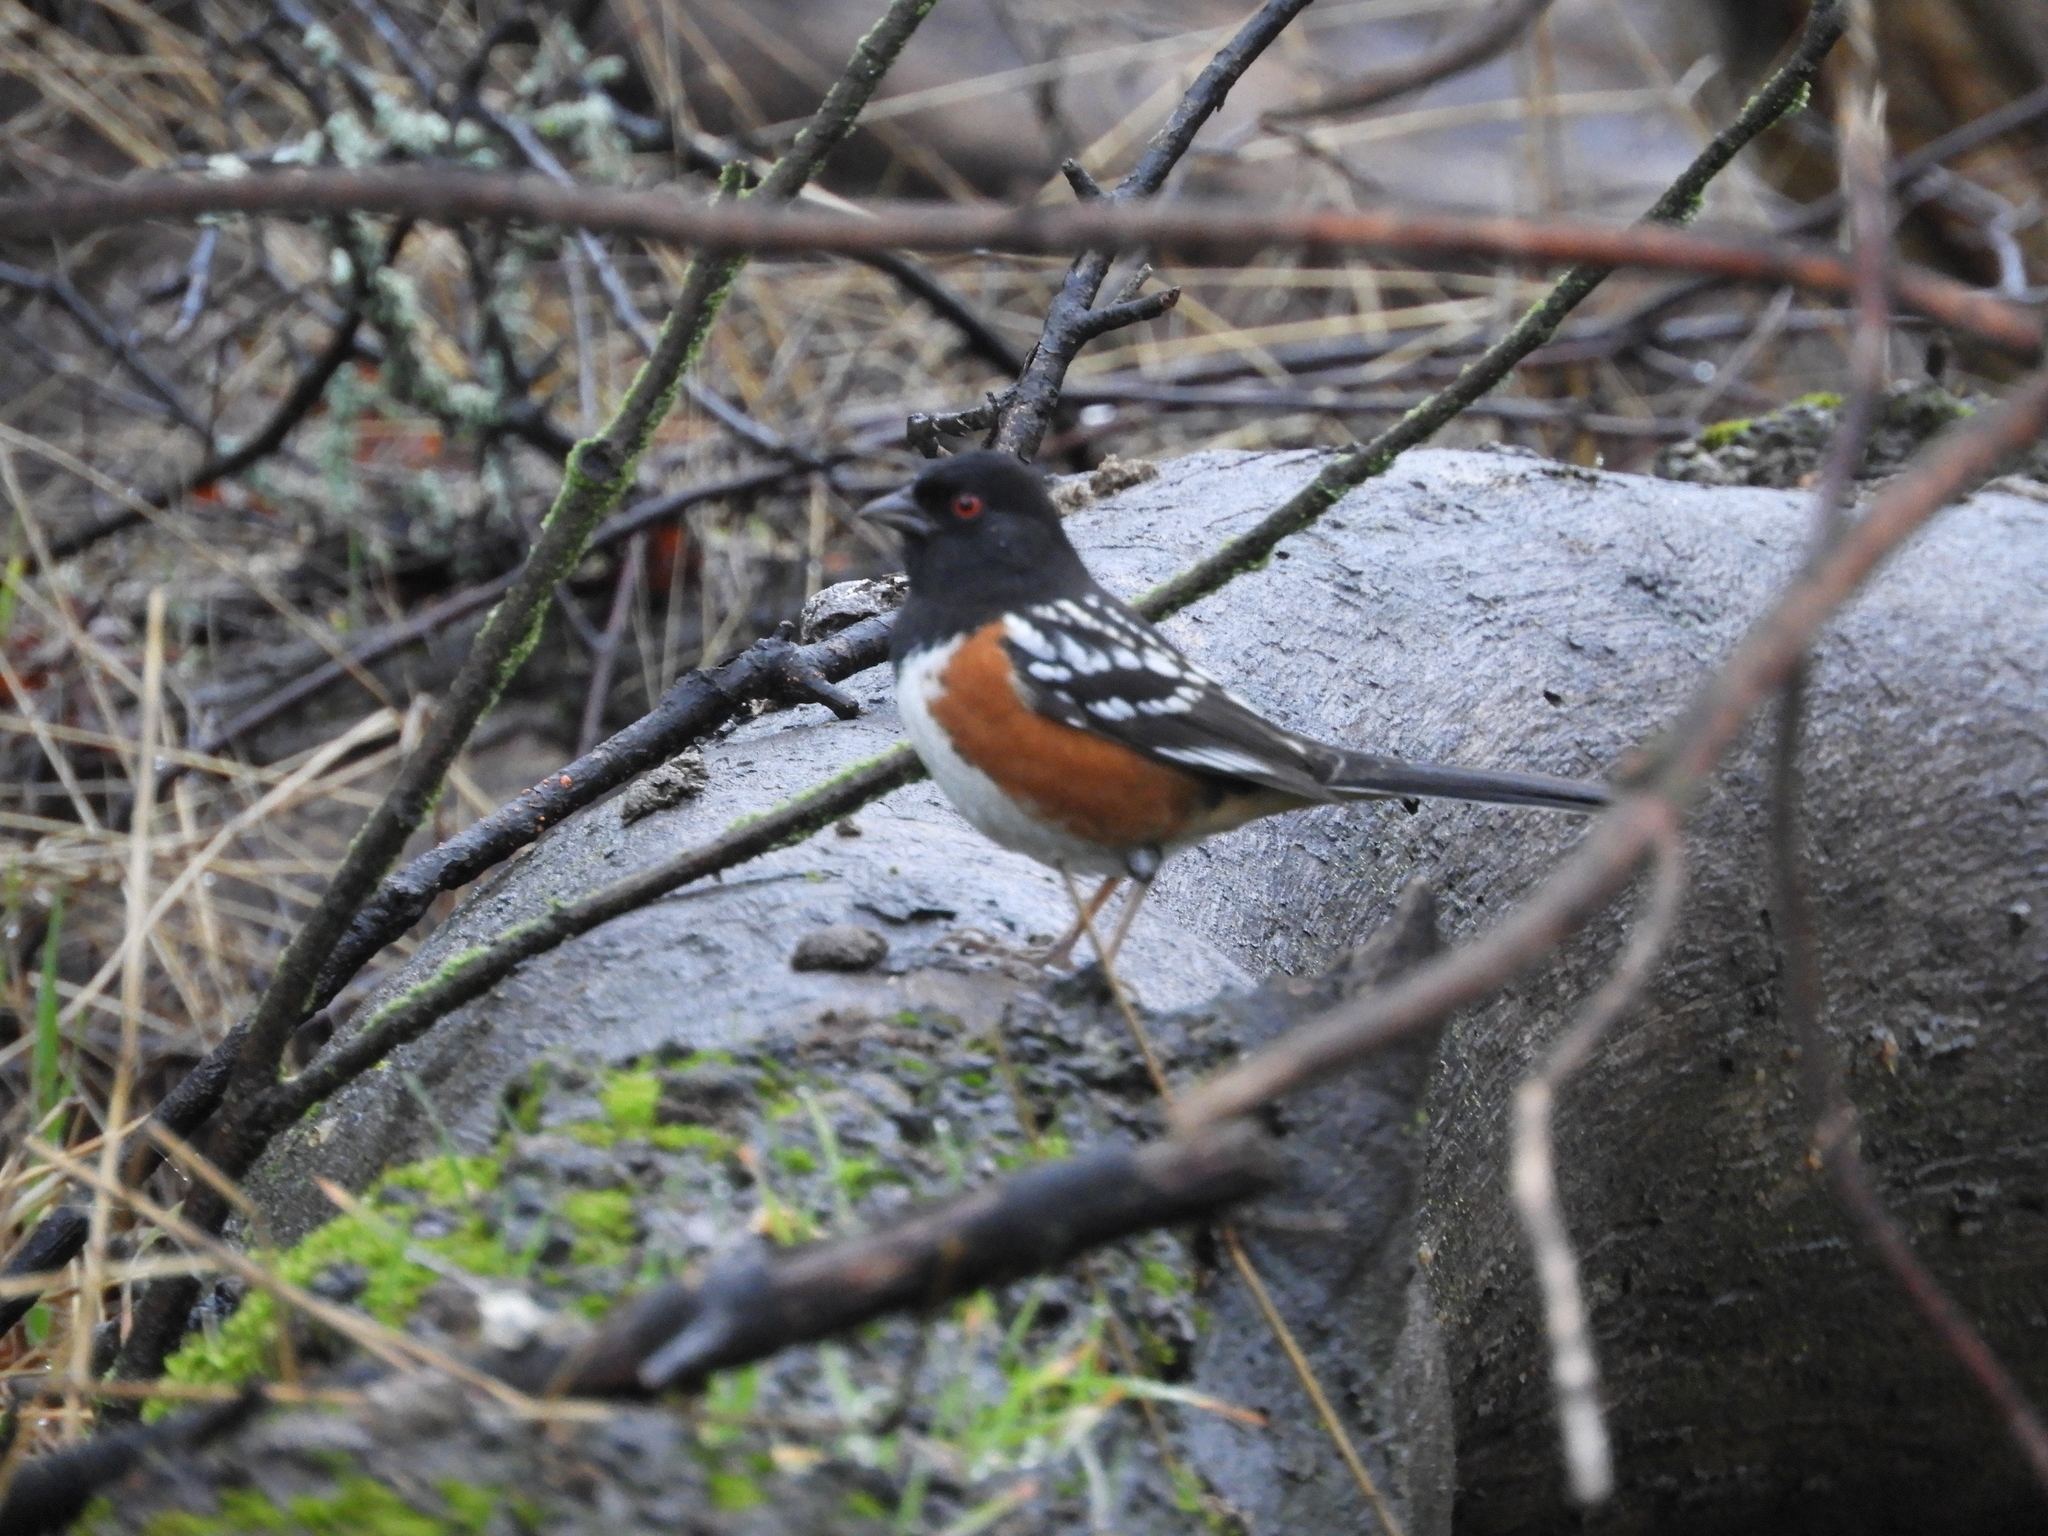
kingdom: Animalia
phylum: Chordata
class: Aves
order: Passeriformes
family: Passerellidae
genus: Pipilo
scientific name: Pipilo maculatus
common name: Spotted towhee
